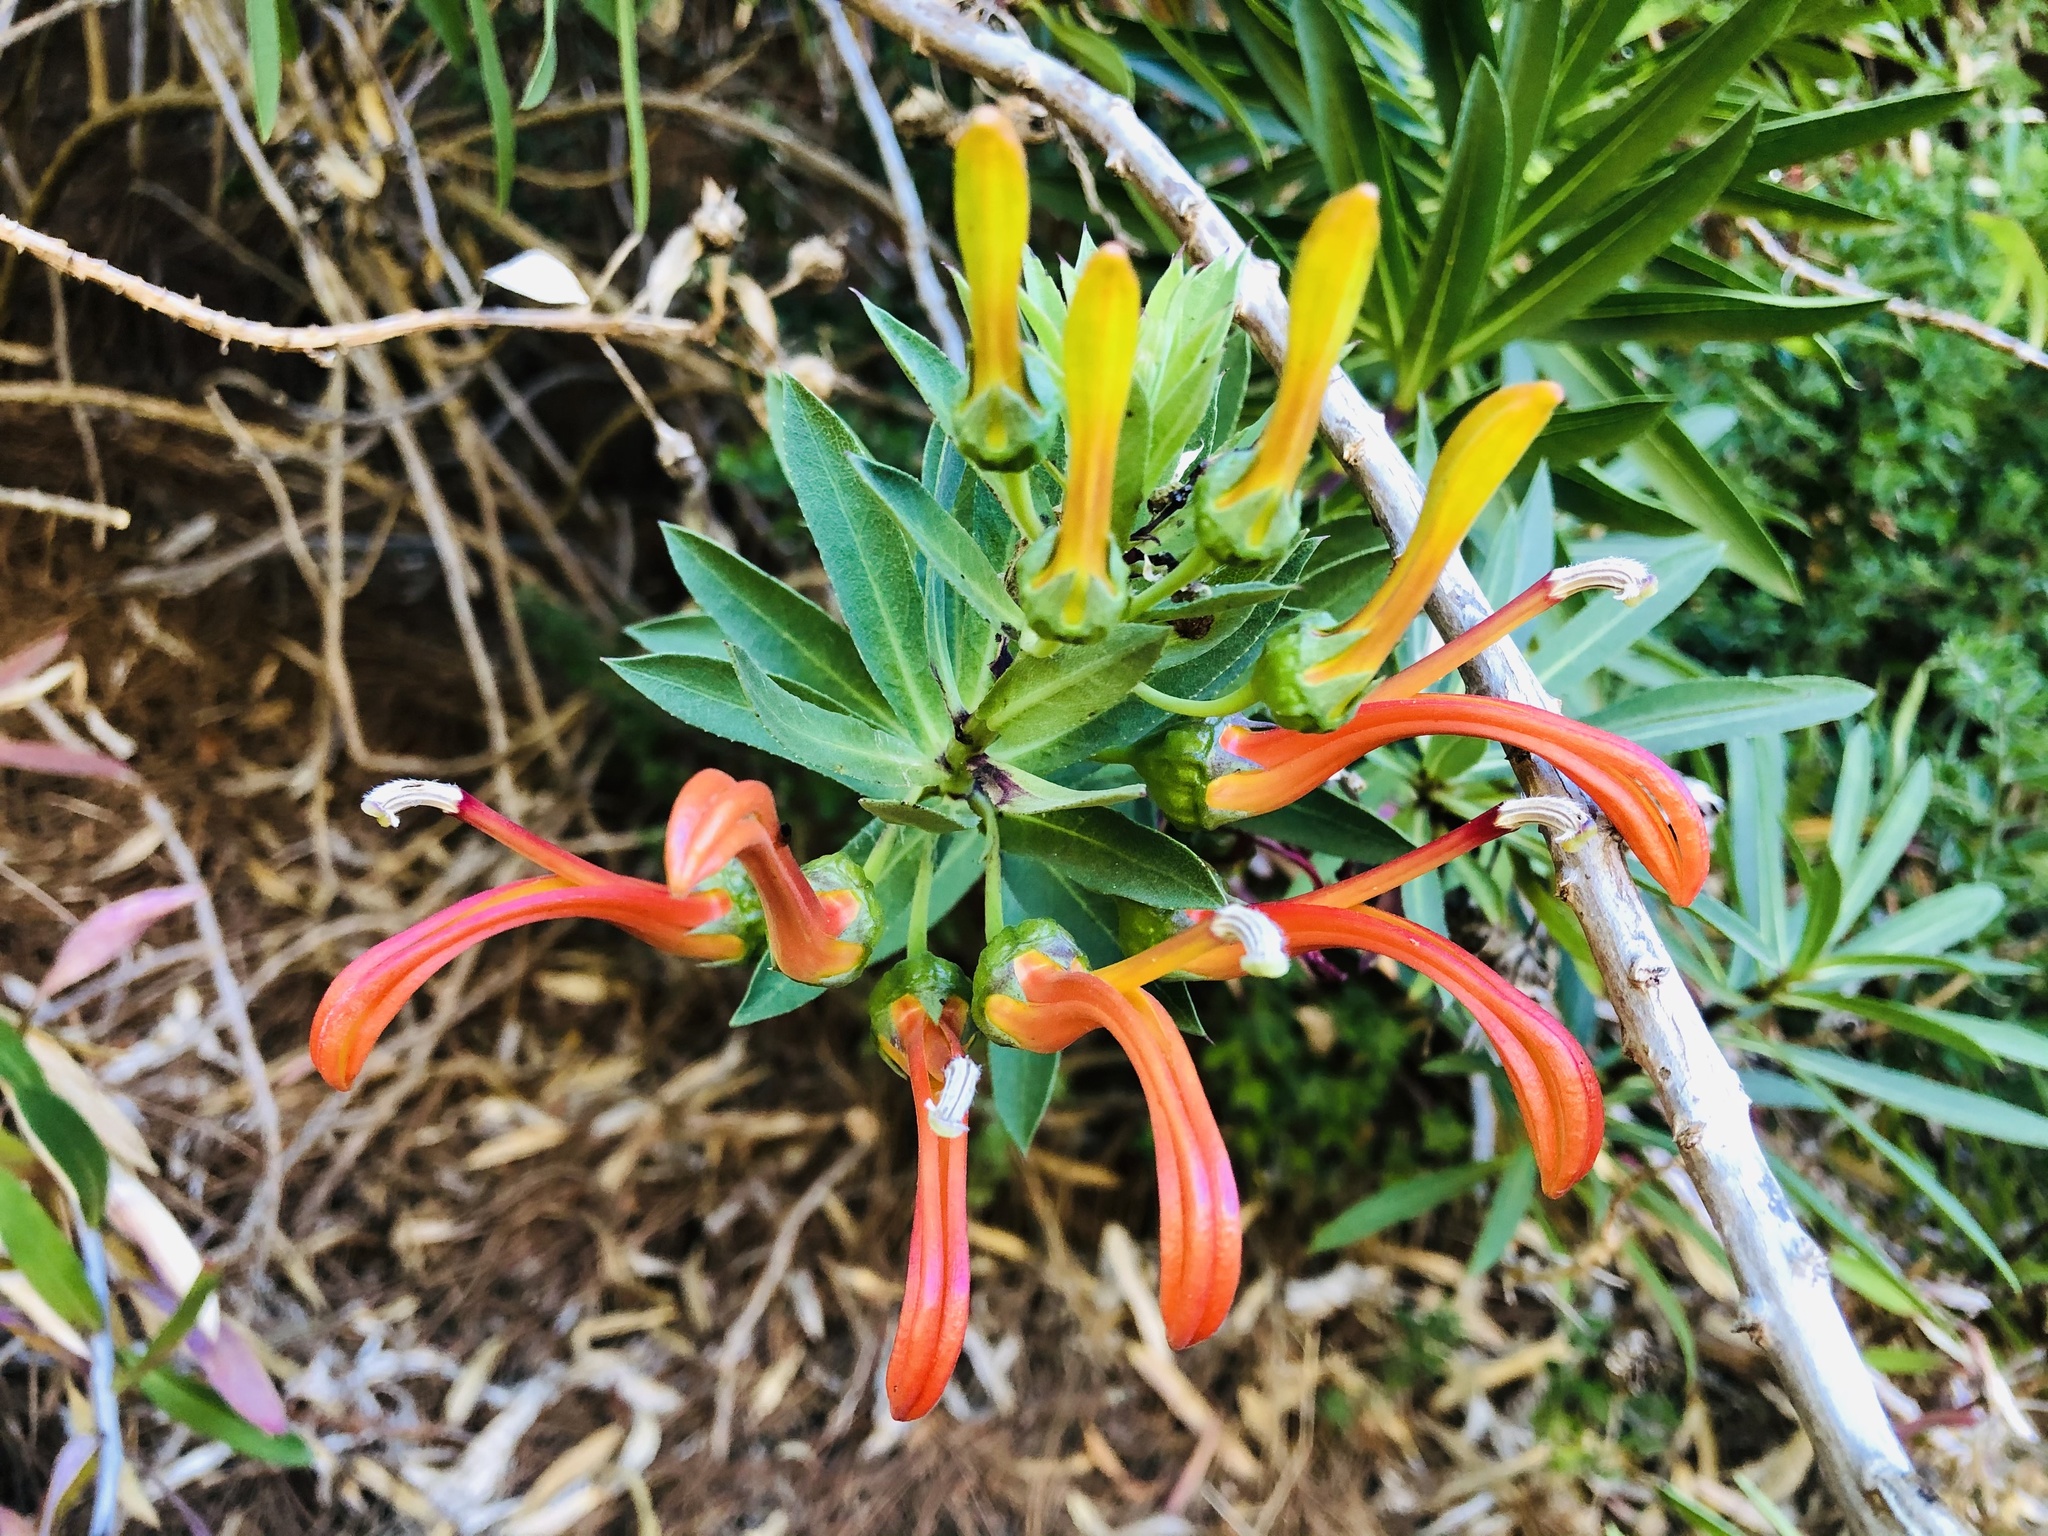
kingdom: Plantae
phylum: Tracheophyta
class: Magnoliopsida
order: Asterales
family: Campanulaceae
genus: Lobelia
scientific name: Lobelia excelsa
